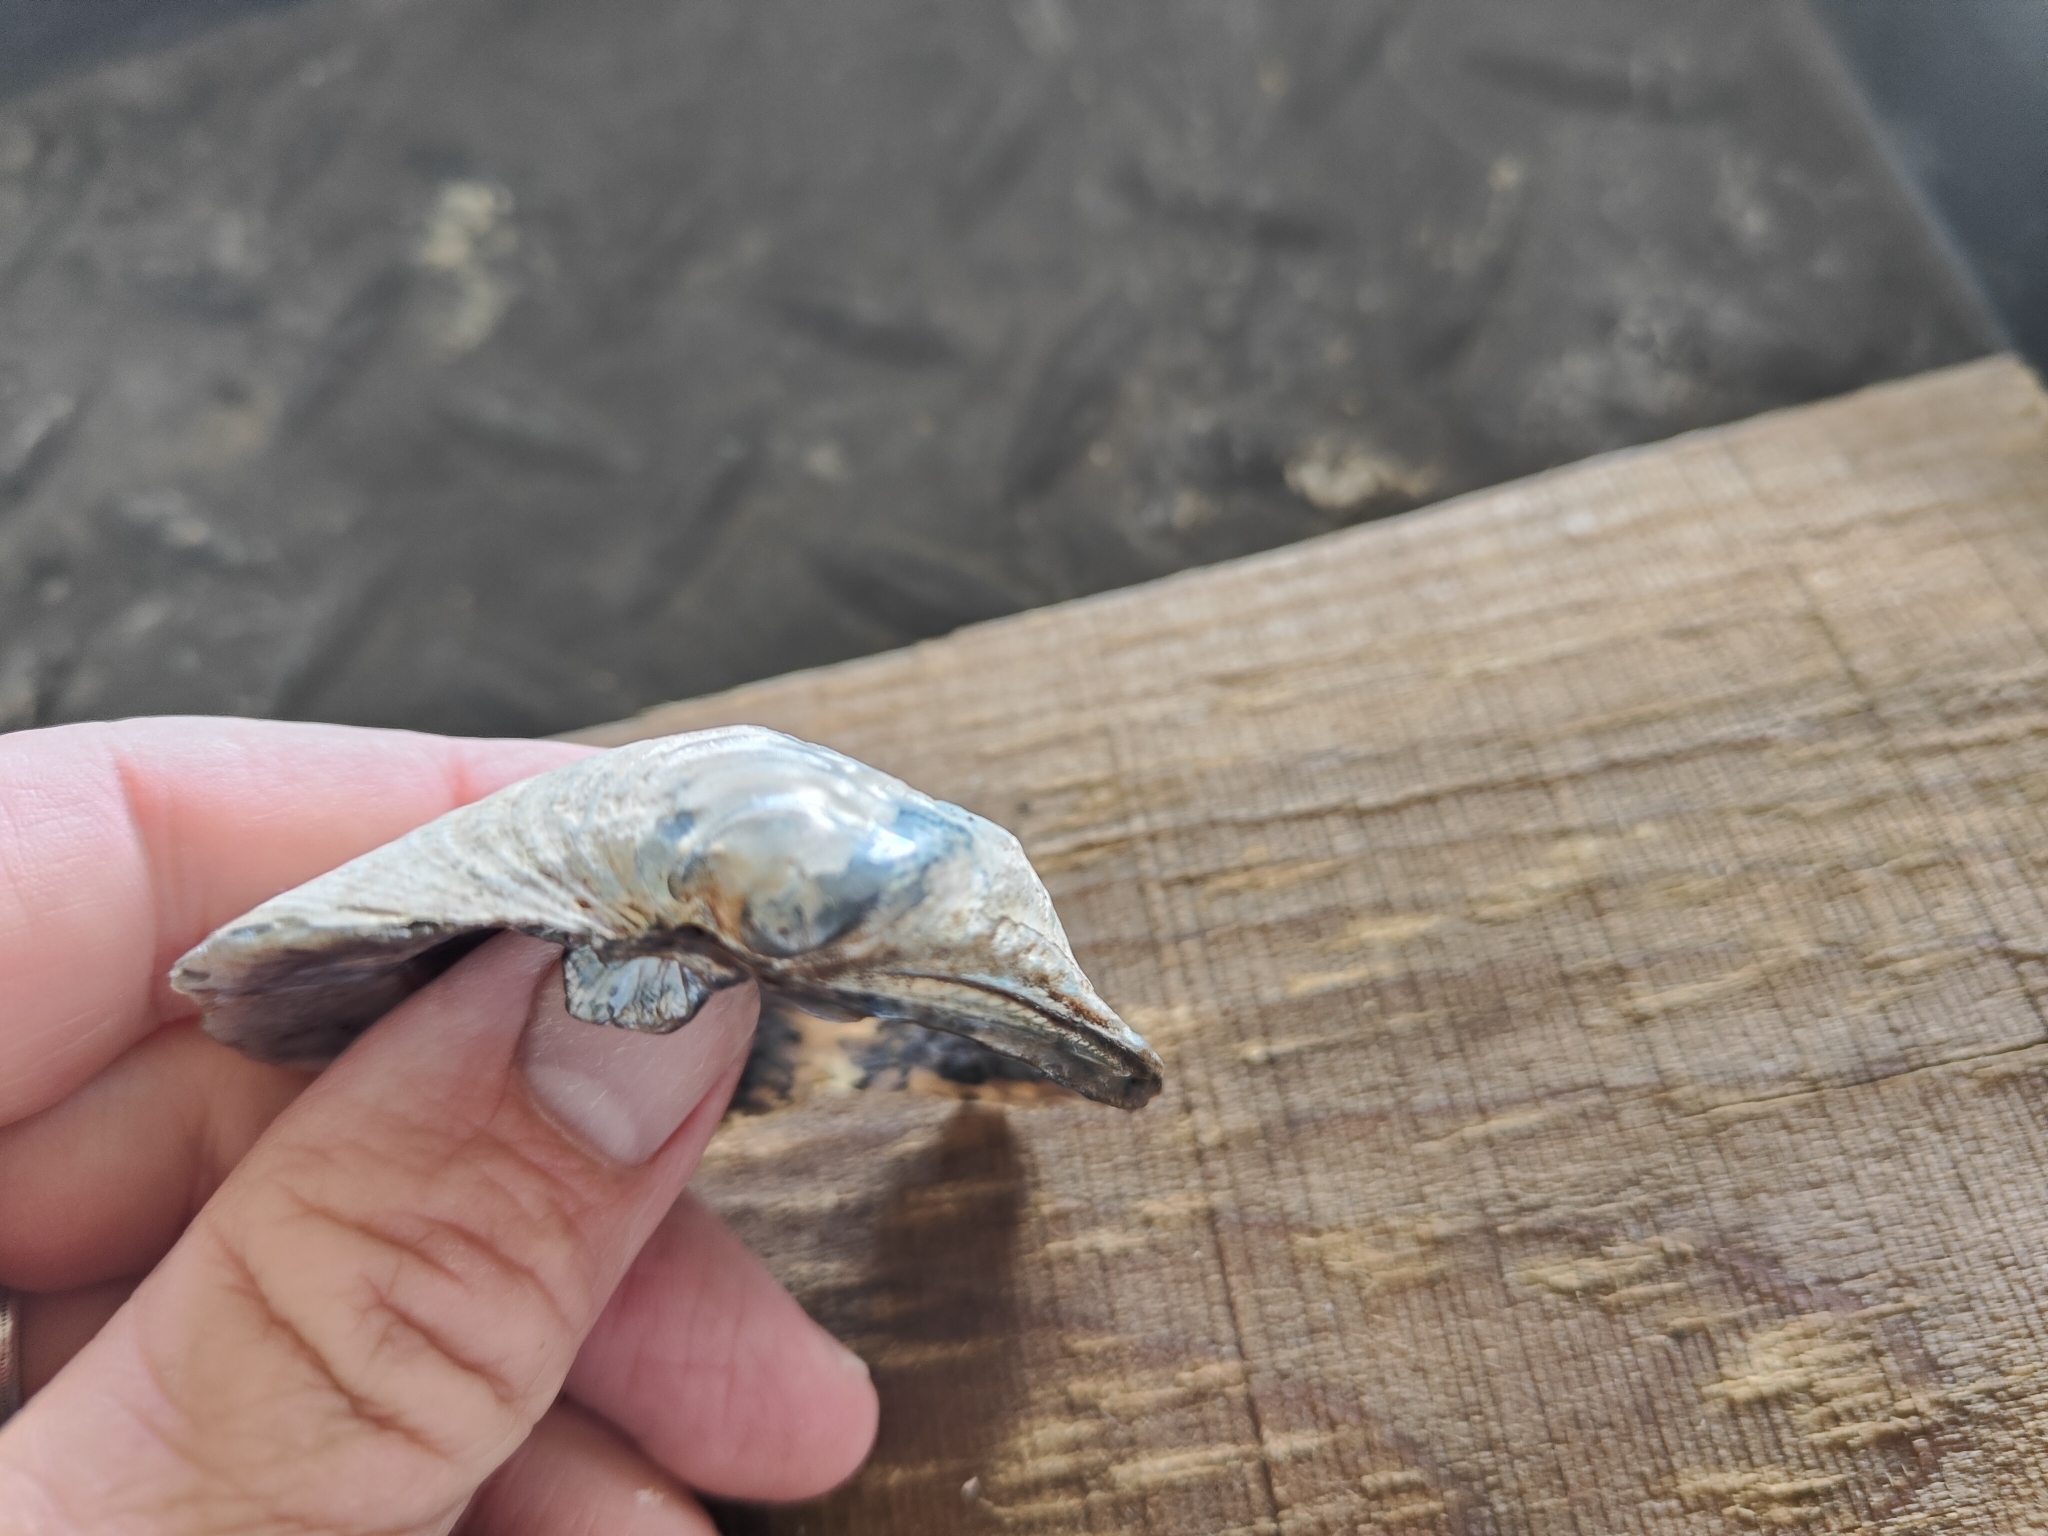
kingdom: Animalia
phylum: Mollusca
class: Bivalvia
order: Unionida
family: Unionidae
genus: Quadrula
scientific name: Quadrula quadrula
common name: Mapleleaf
